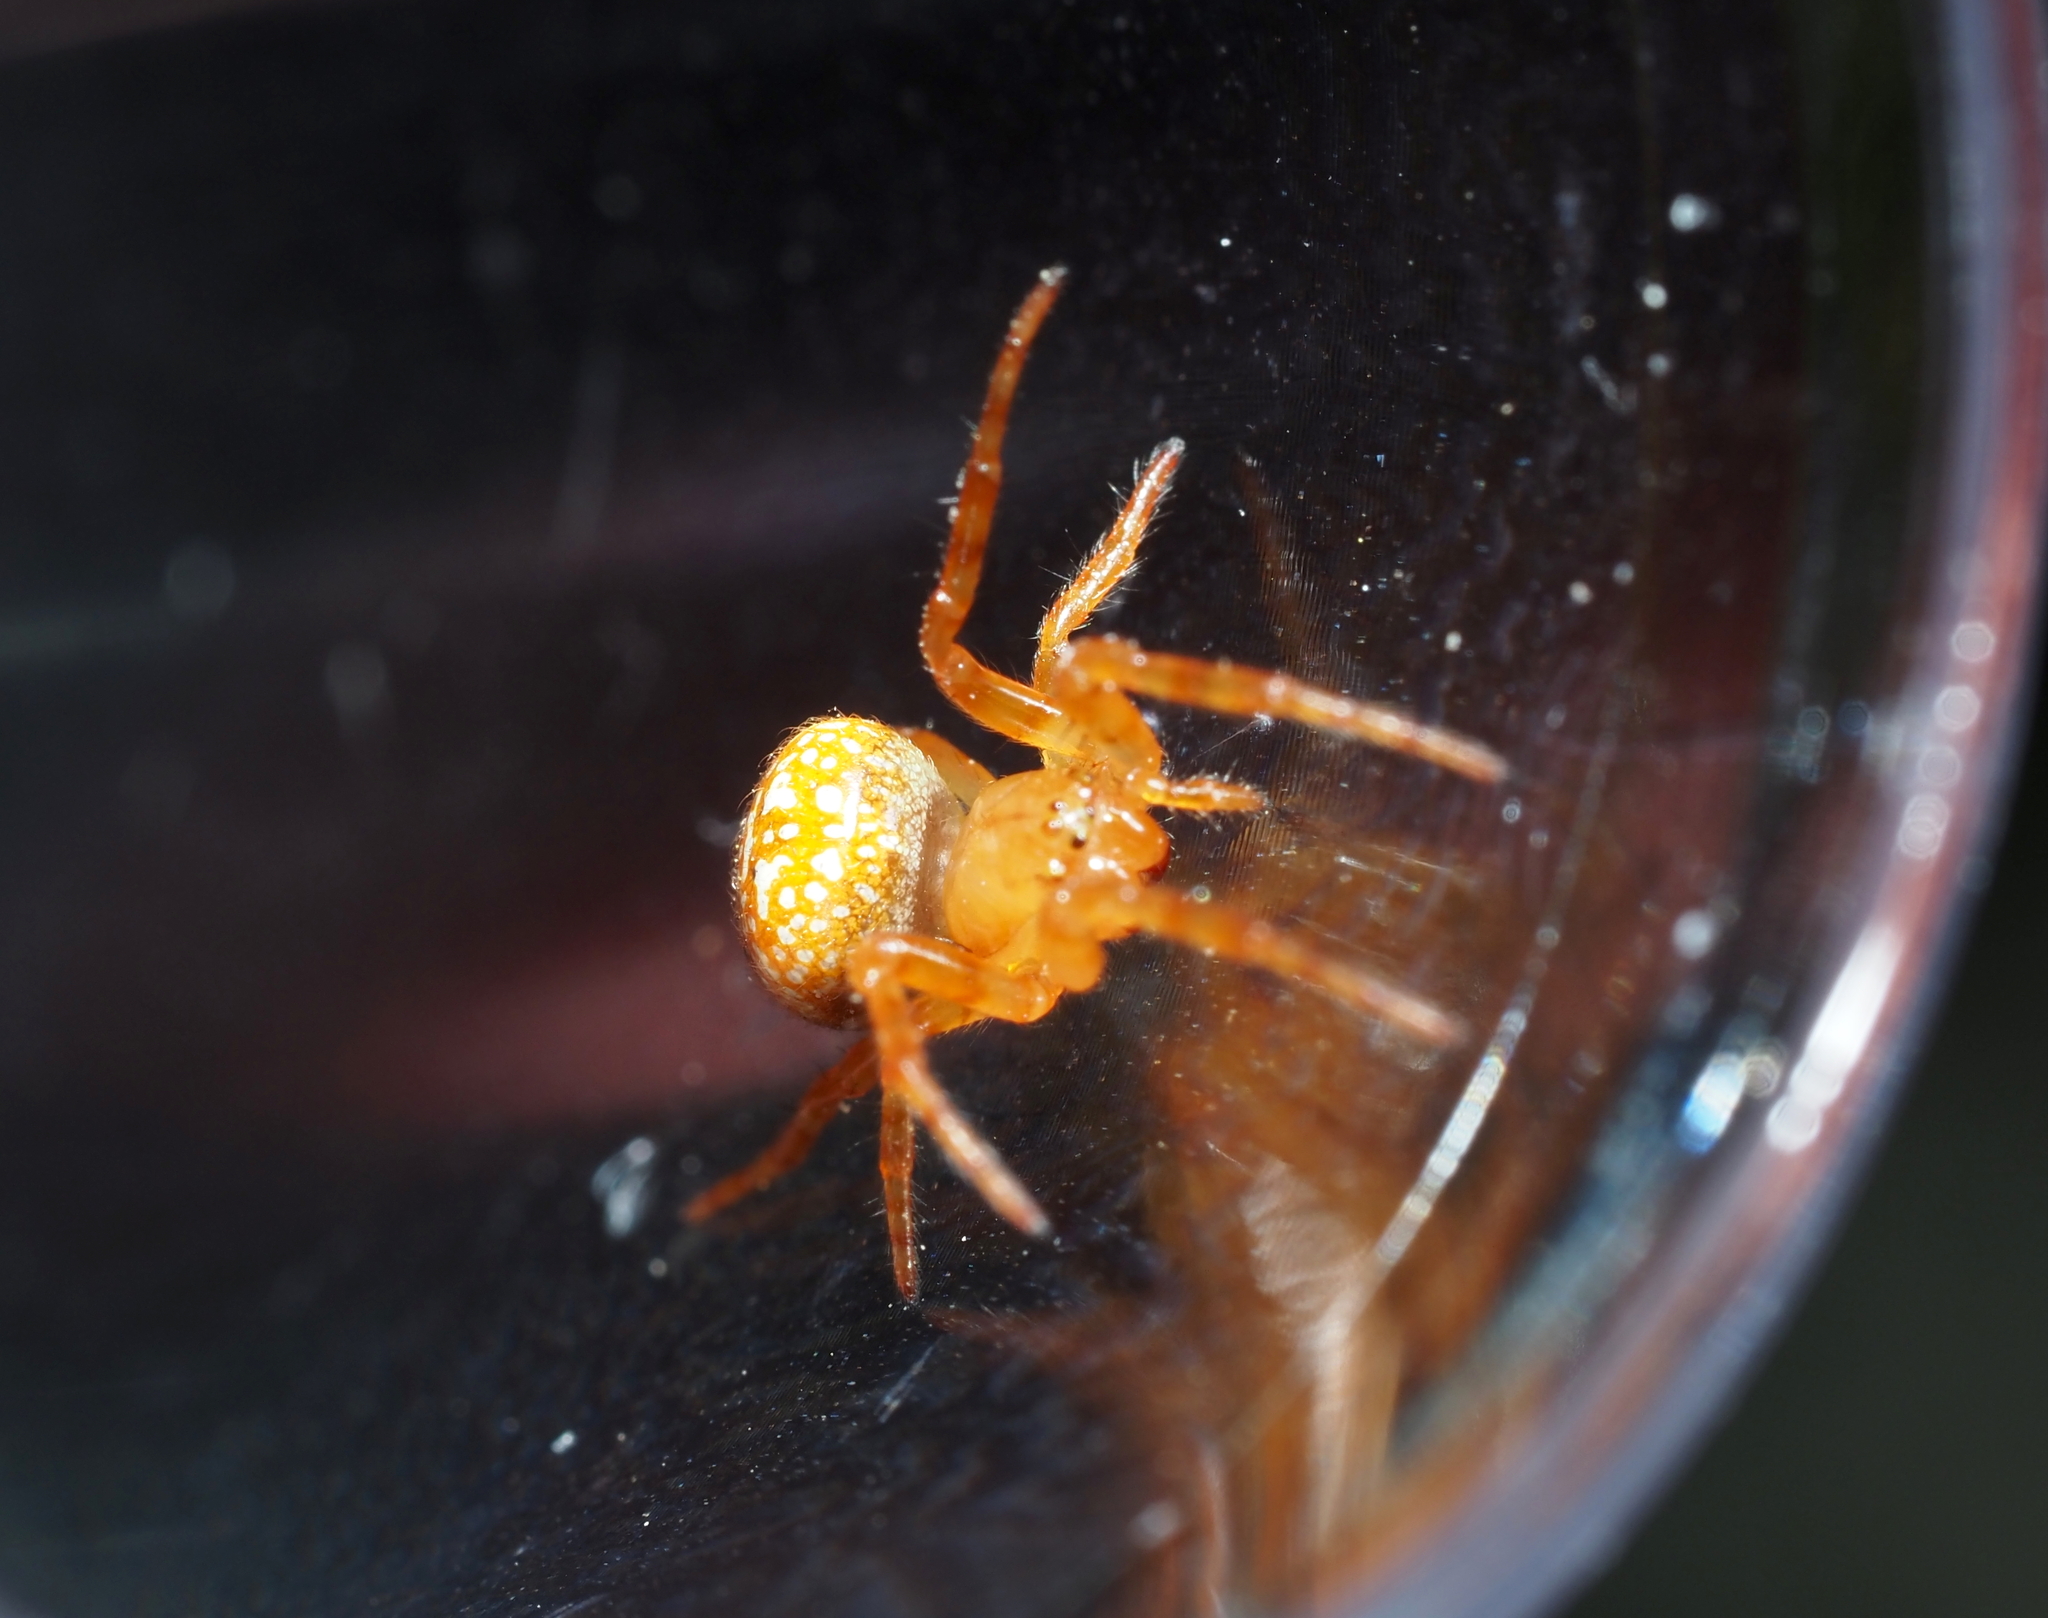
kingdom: Animalia
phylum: Arthropoda
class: Arachnida
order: Araneae
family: Araneidae
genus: Araneus
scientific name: Araneus iviei
